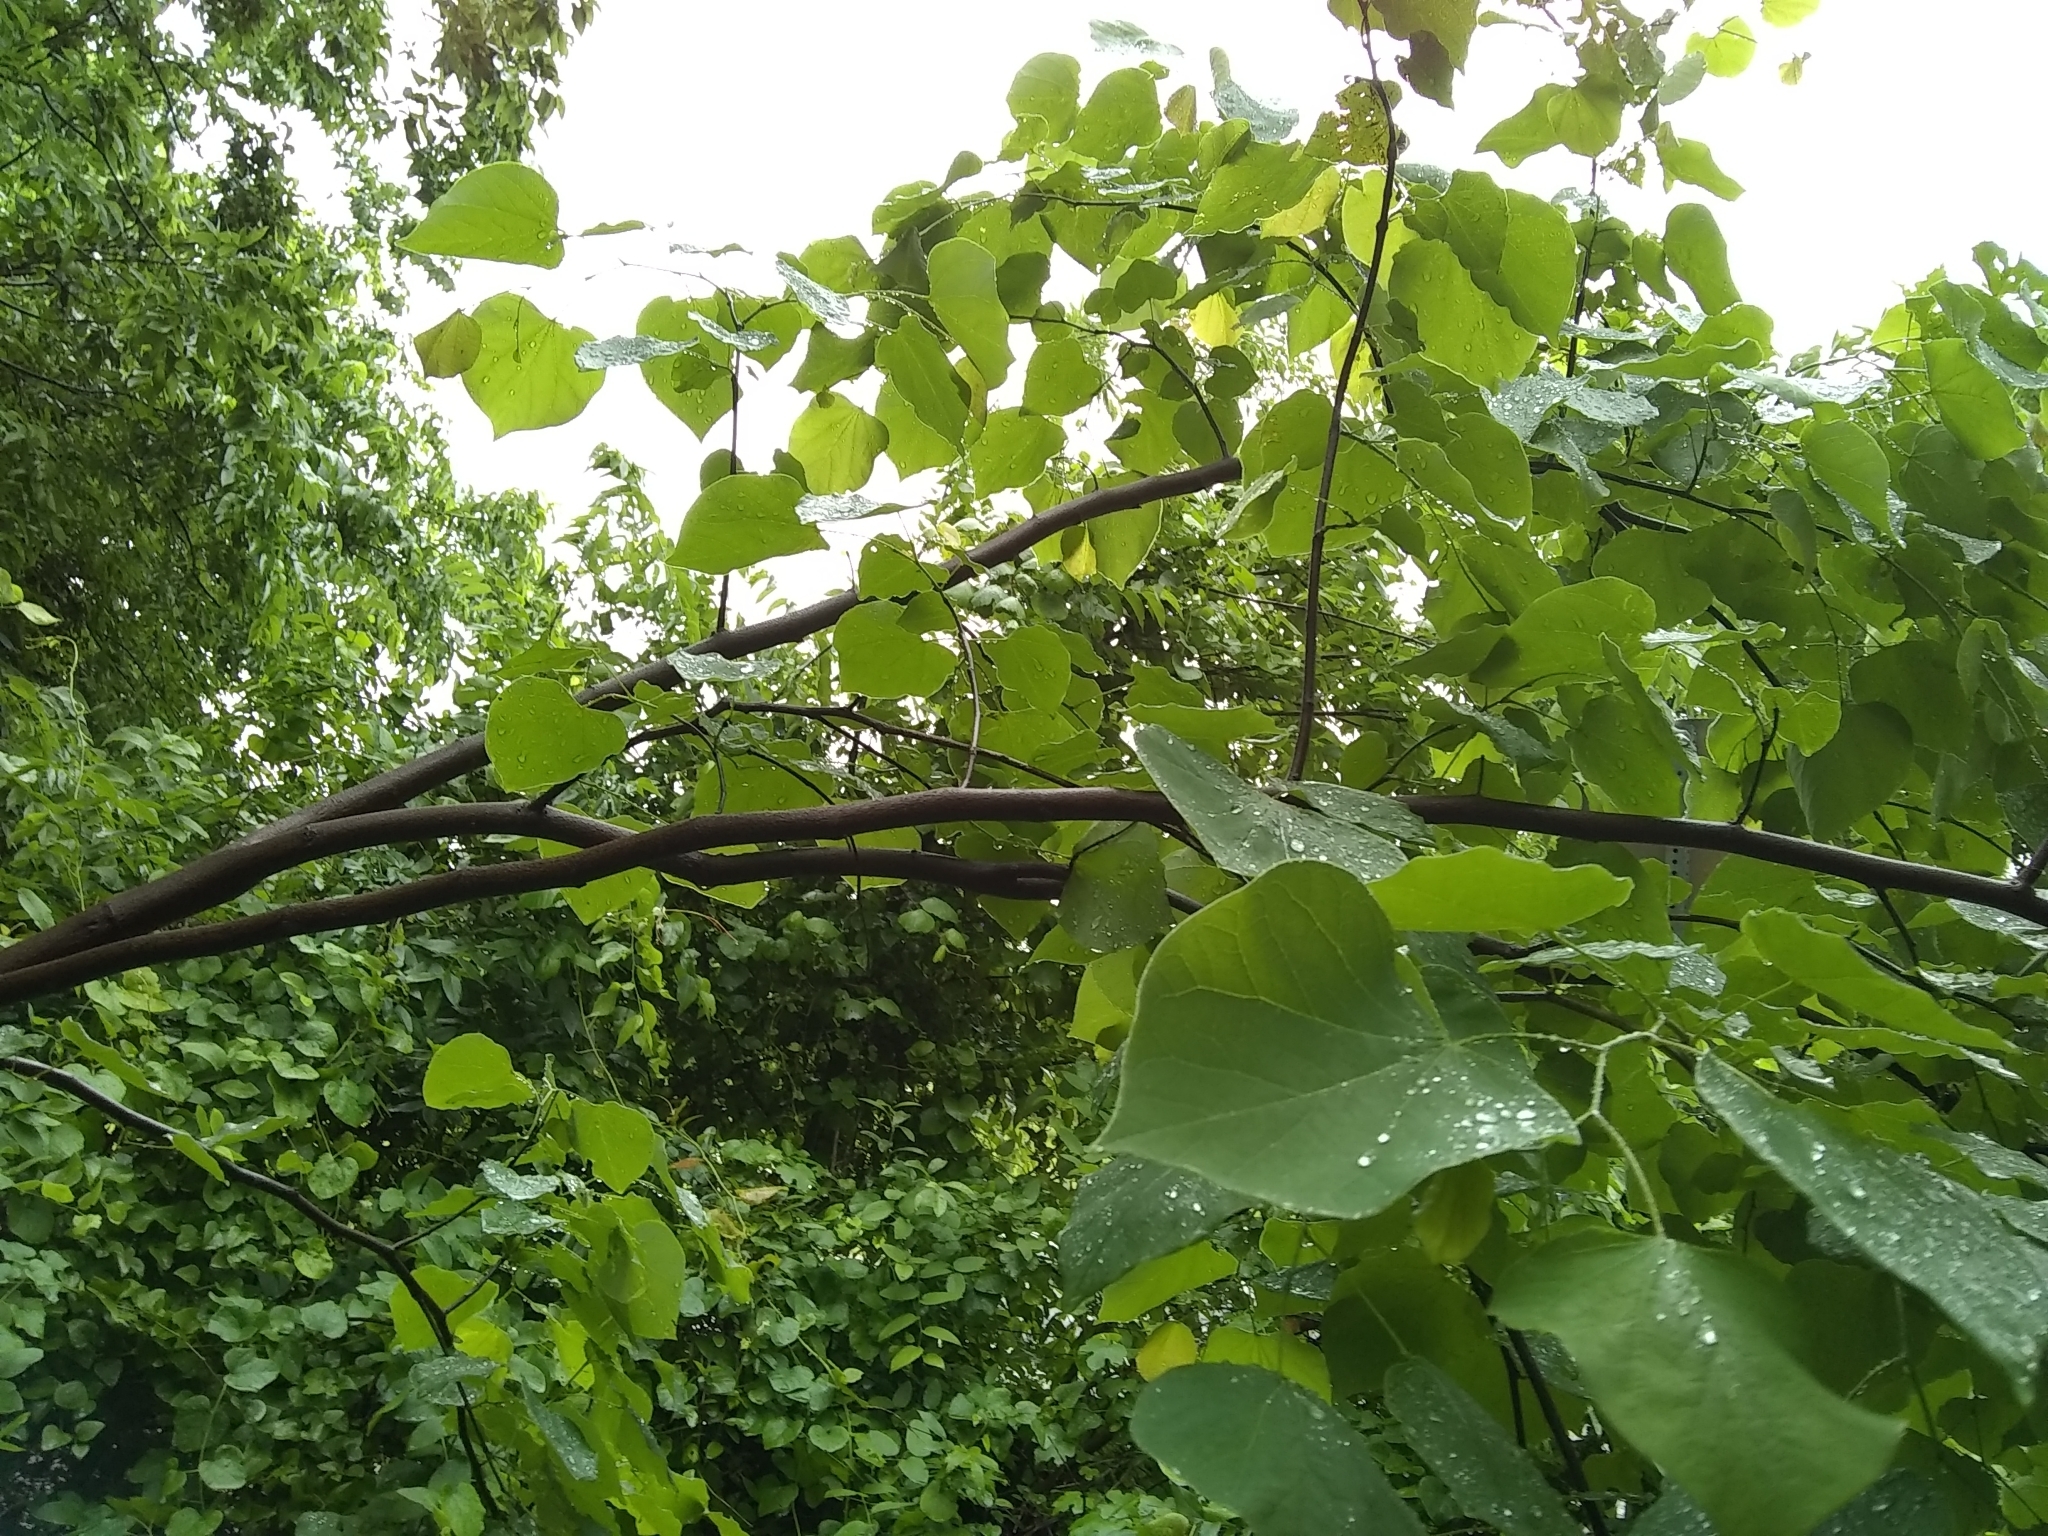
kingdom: Plantae
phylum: Tracheophyta
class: Magnoliopsida
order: Fabales
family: Fabaceae
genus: Cercis
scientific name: Cercis canadensis
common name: Eastern redbud
